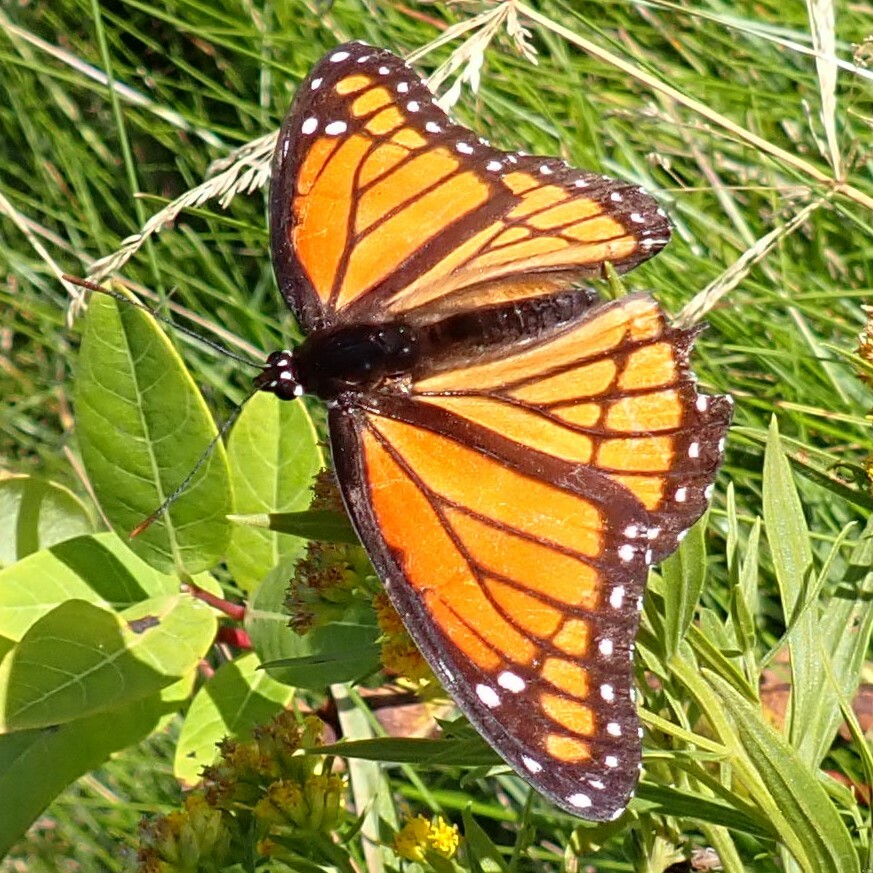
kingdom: Animalia
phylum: Arthropoda
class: Insecta
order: Lepidoptera
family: Nymphalidae
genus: Limenitis
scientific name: Limenitis archippus
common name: Viceroy
